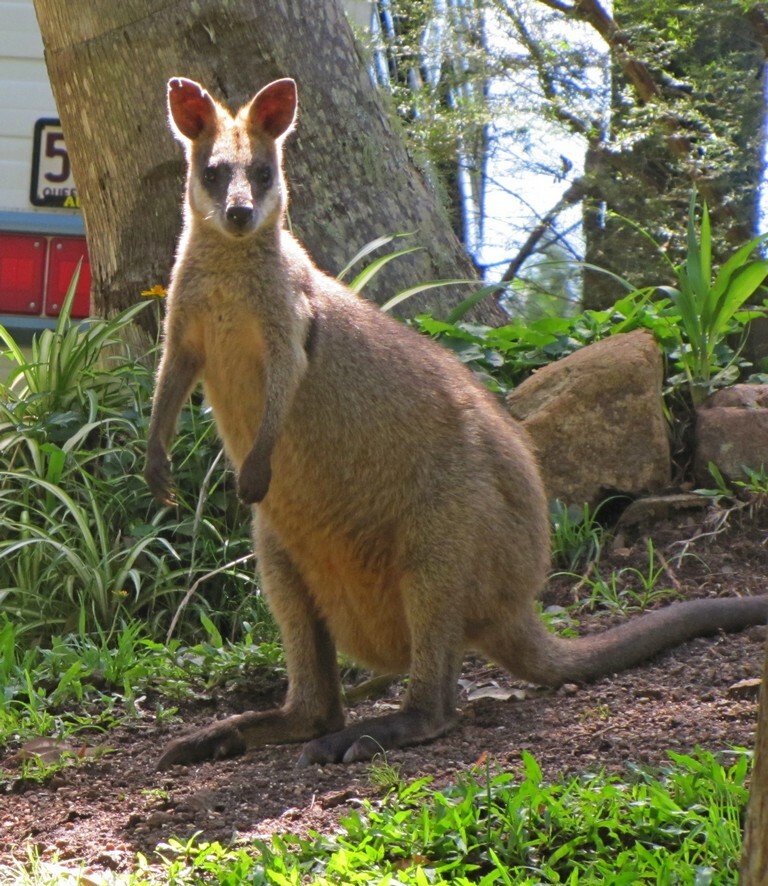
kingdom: Animalia
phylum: Chordata
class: Mammalia
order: Diprotodontia
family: Macropodidae
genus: Macropus
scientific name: Macropus agilis
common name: Agile wallaby
